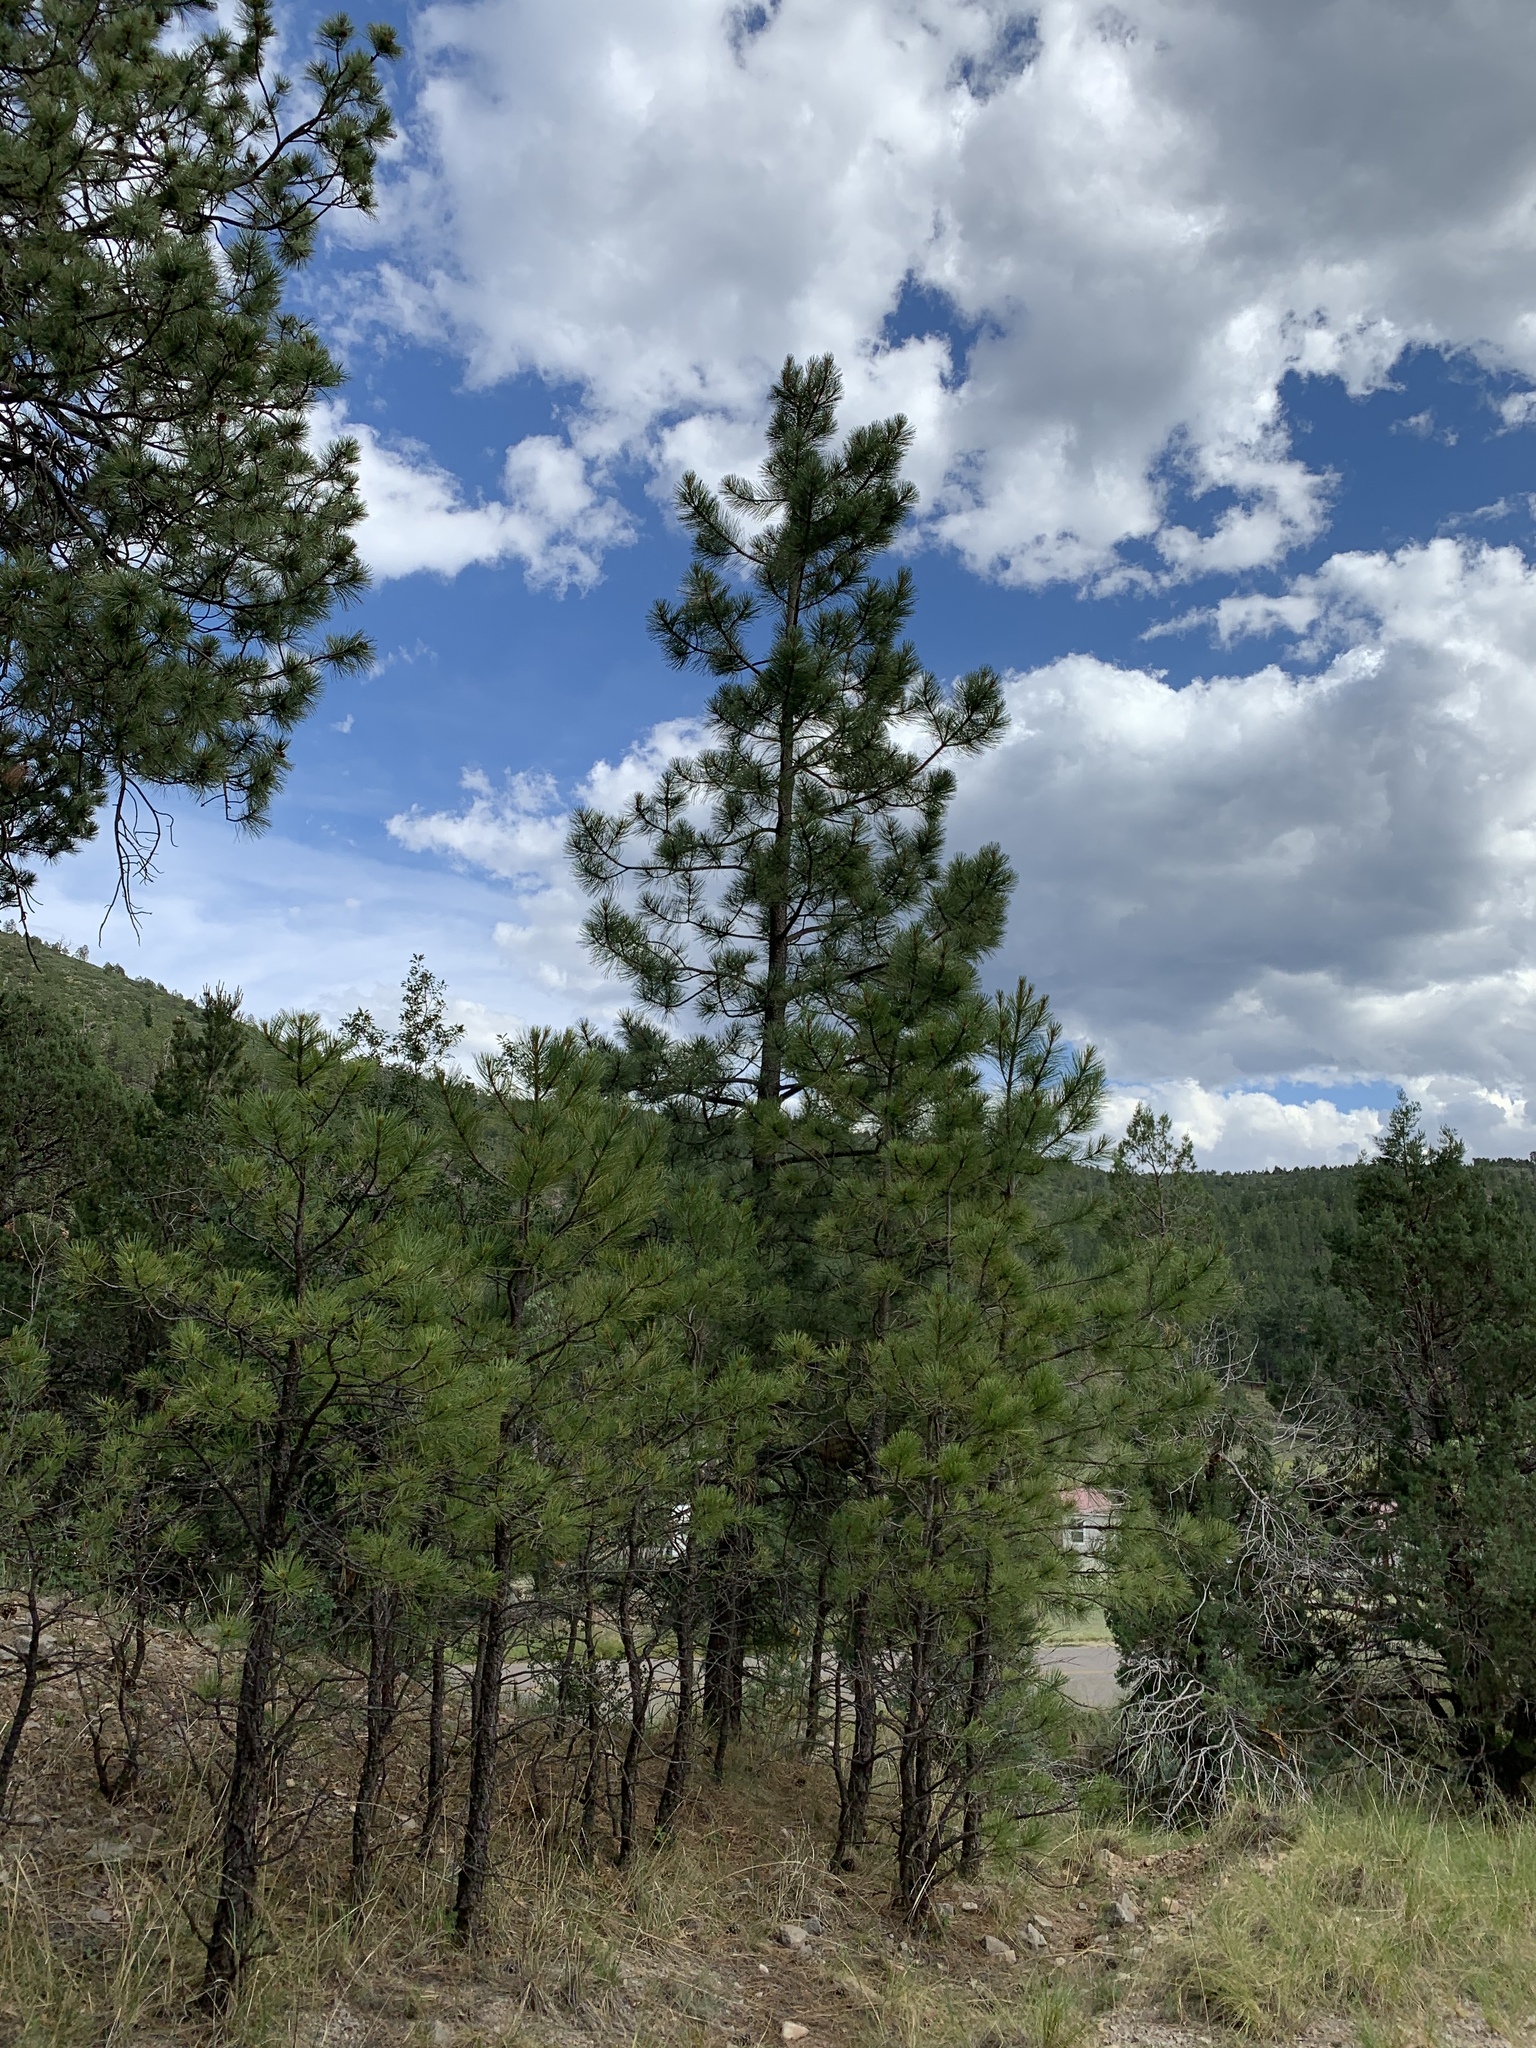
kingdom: Plantae
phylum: Tracheophyta
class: Pinopsida
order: Pinales
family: Pinaceae
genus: Pinus
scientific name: Pinus ponderosa
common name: Western yellow-pine
